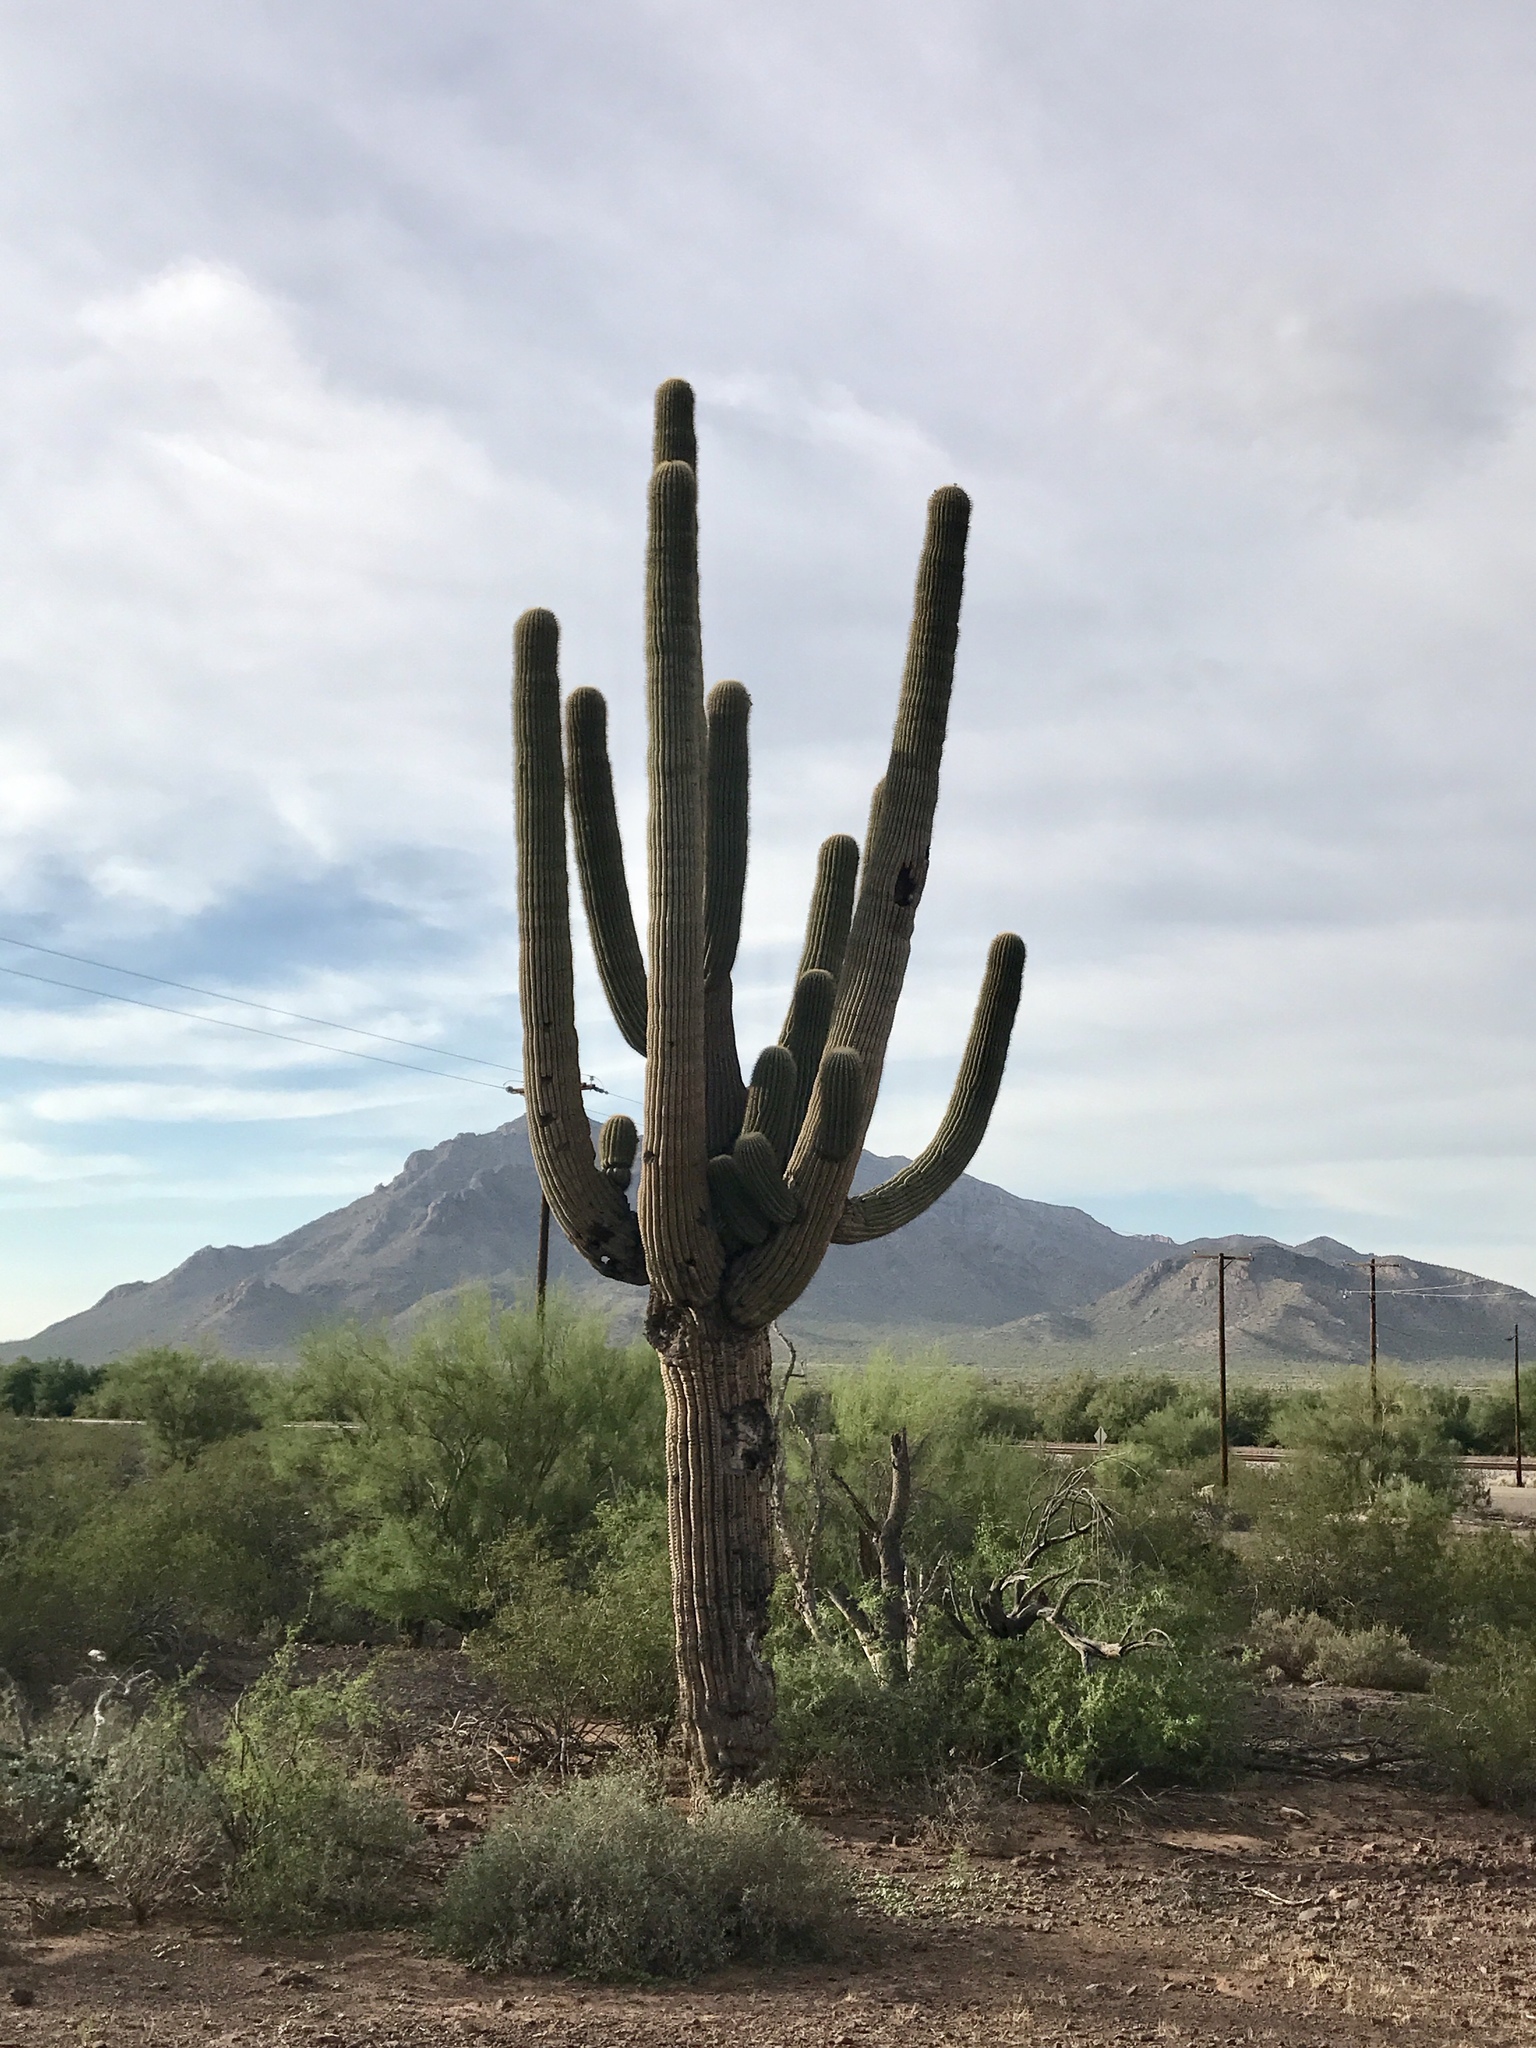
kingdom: Plantae
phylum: Tracheophyta
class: Magnoliopsida
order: Caryophyllales
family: Cactaceae
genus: Carnegiea
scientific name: Carnegiea gigantea
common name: Saguaro
